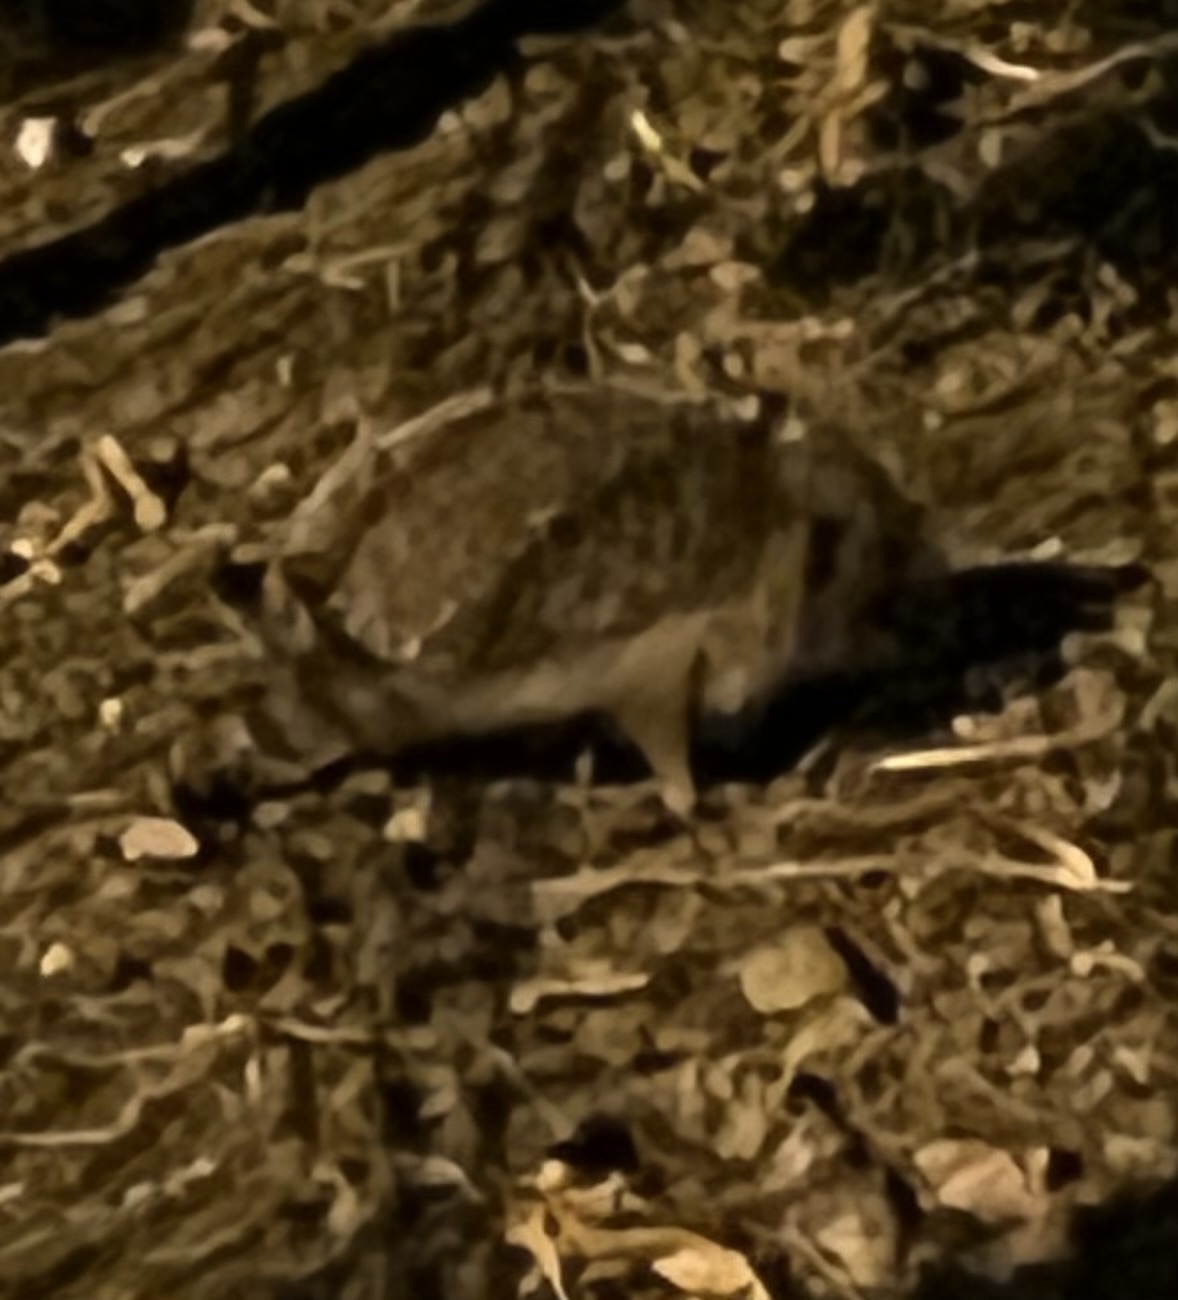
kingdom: Animalia
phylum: Chordata
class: Mammalia
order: Erinaceomorpha
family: Erinaceidae
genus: Erinaceus
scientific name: Erinaceus europaeus
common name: West european hedgehog
